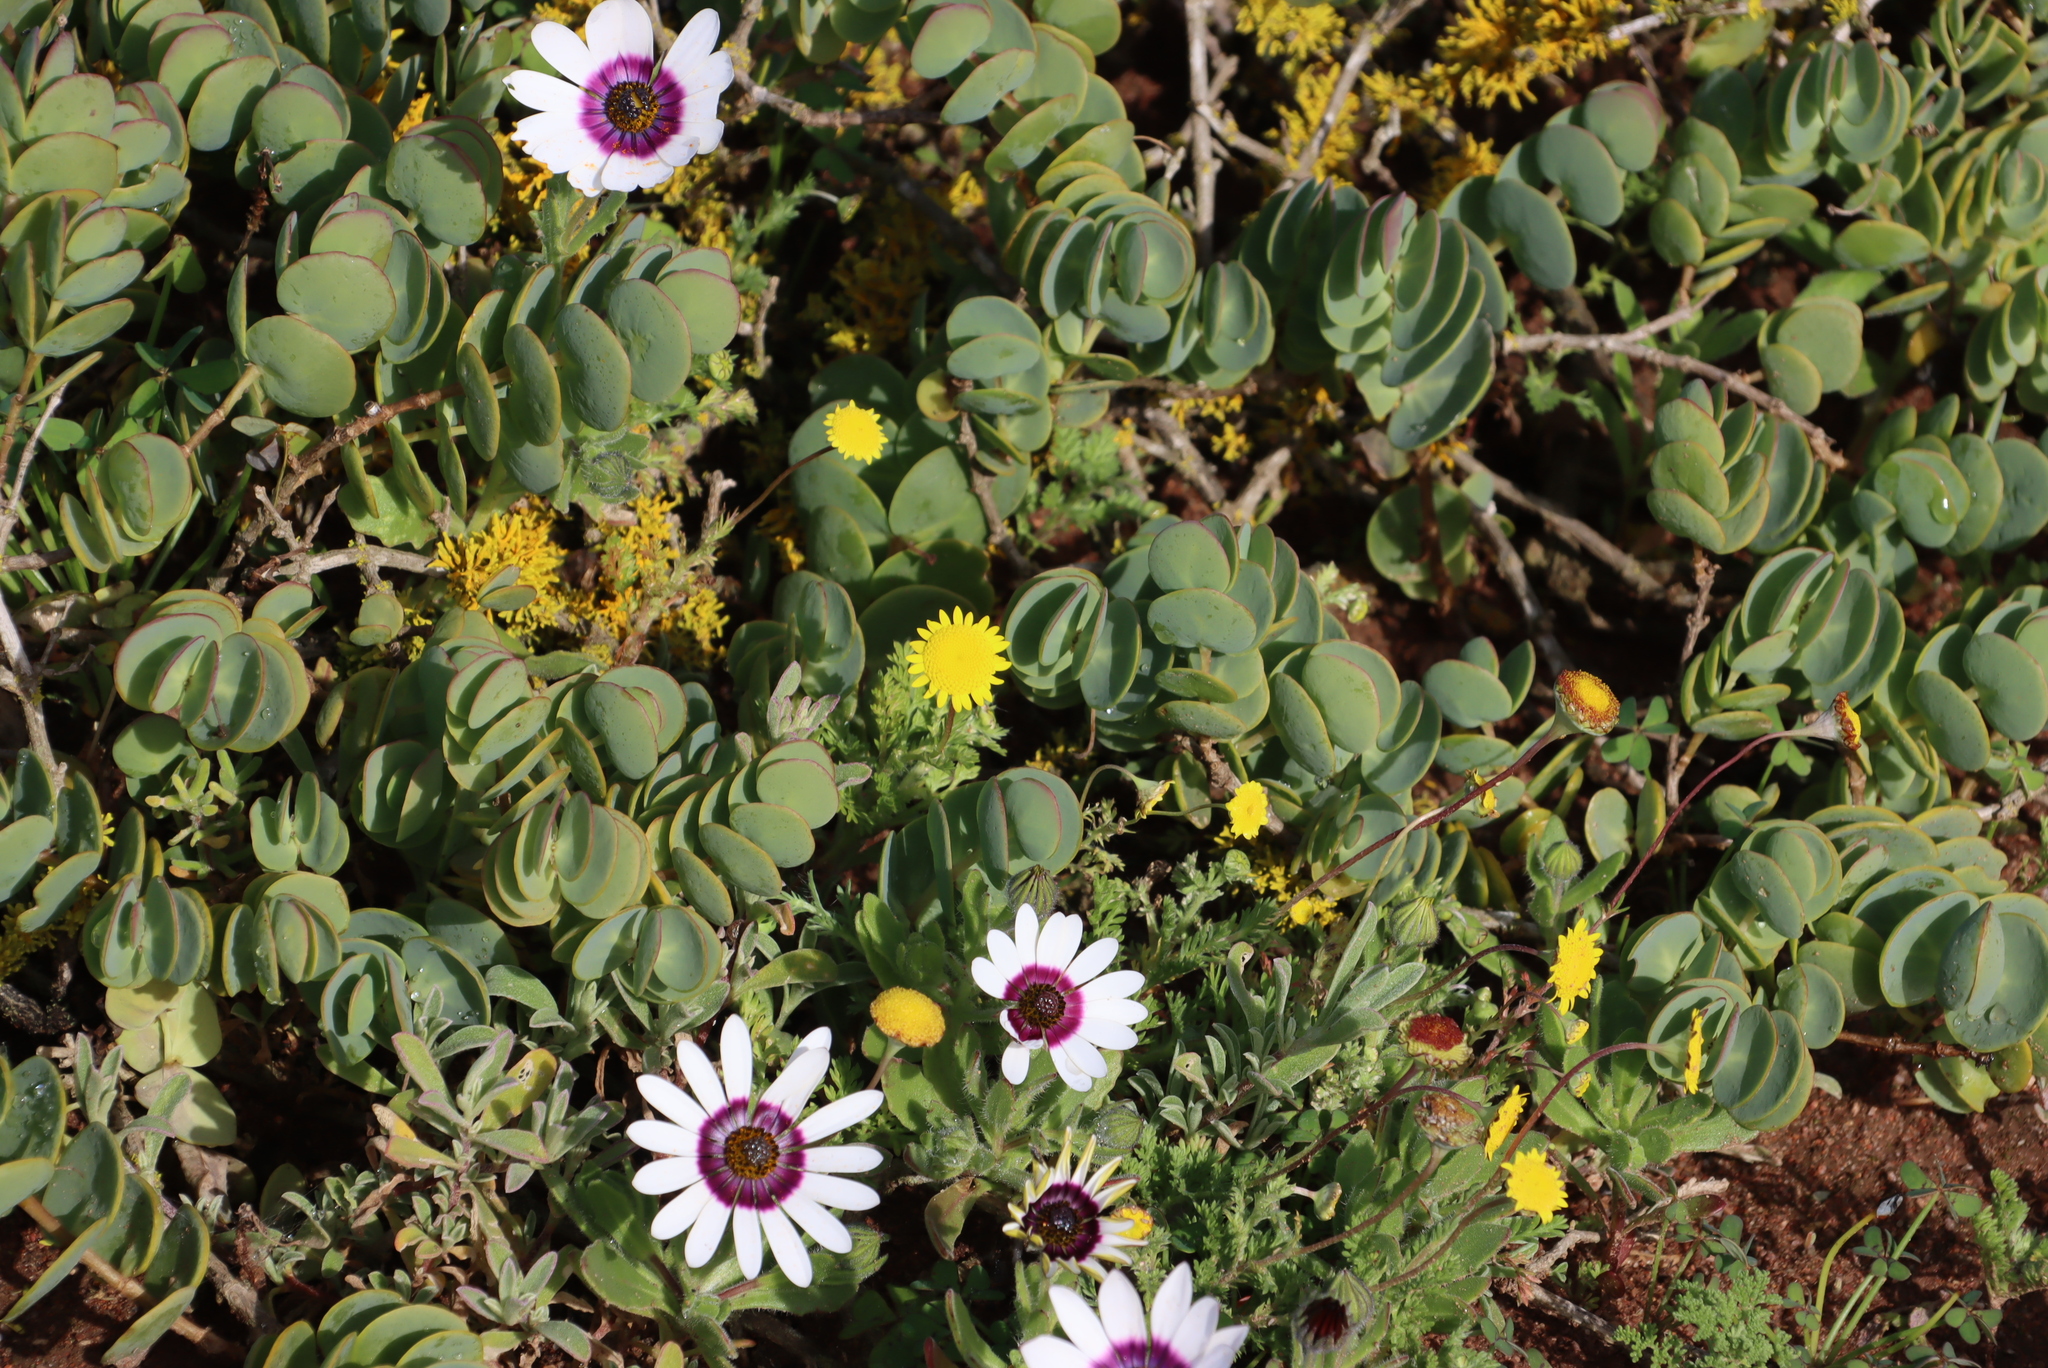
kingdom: Plantae
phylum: Tracheophyta
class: Magnoliopsida
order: Zygophyllales
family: Zygophyllaceae
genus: Roepera
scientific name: Roepera cordifolia
